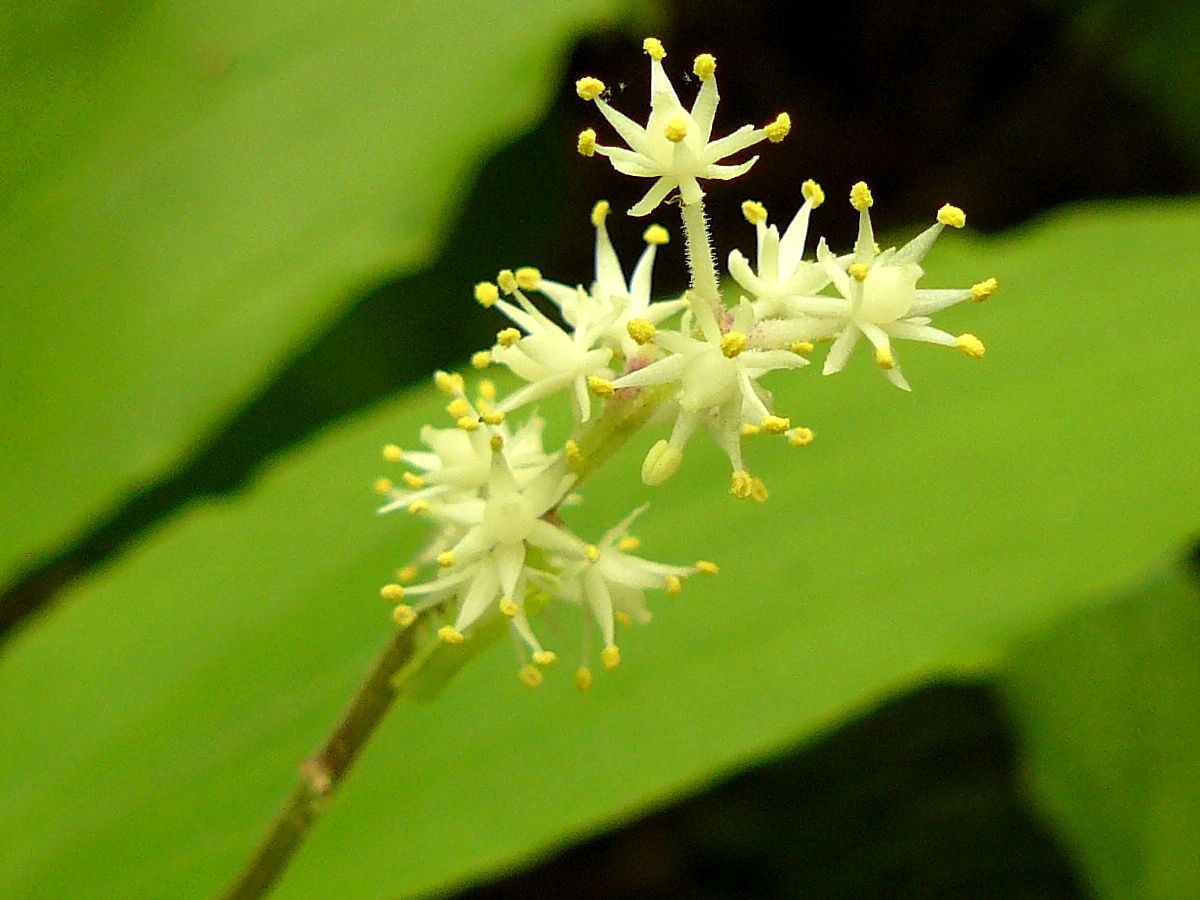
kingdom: Plantae
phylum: Tracheophyta
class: Liliopsida
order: Asparagales
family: Asparagaceae
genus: Maianthemum
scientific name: Maianthemum racemosum
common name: False spikenard
